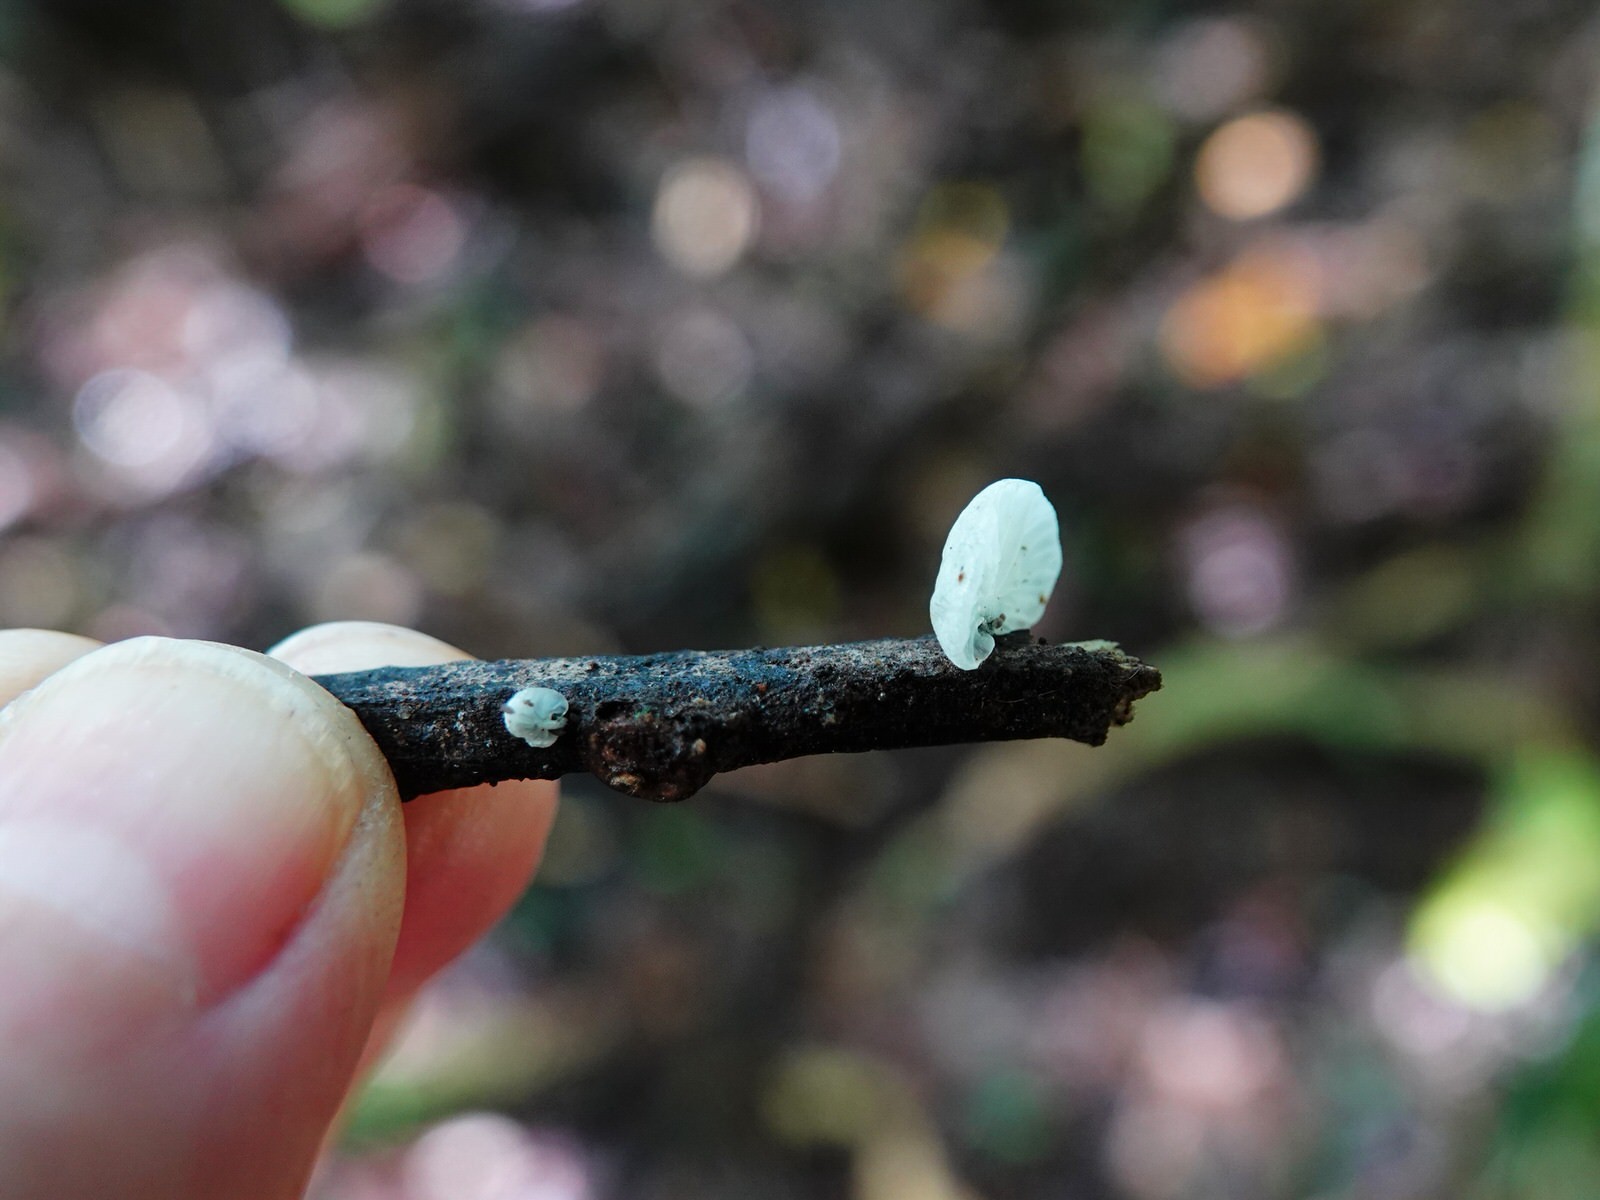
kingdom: Fungi
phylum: Basidiomycota
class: Agaricomycetes
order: Agaricales
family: Marasmiaceae
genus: Campanella
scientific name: Campanella tristis
